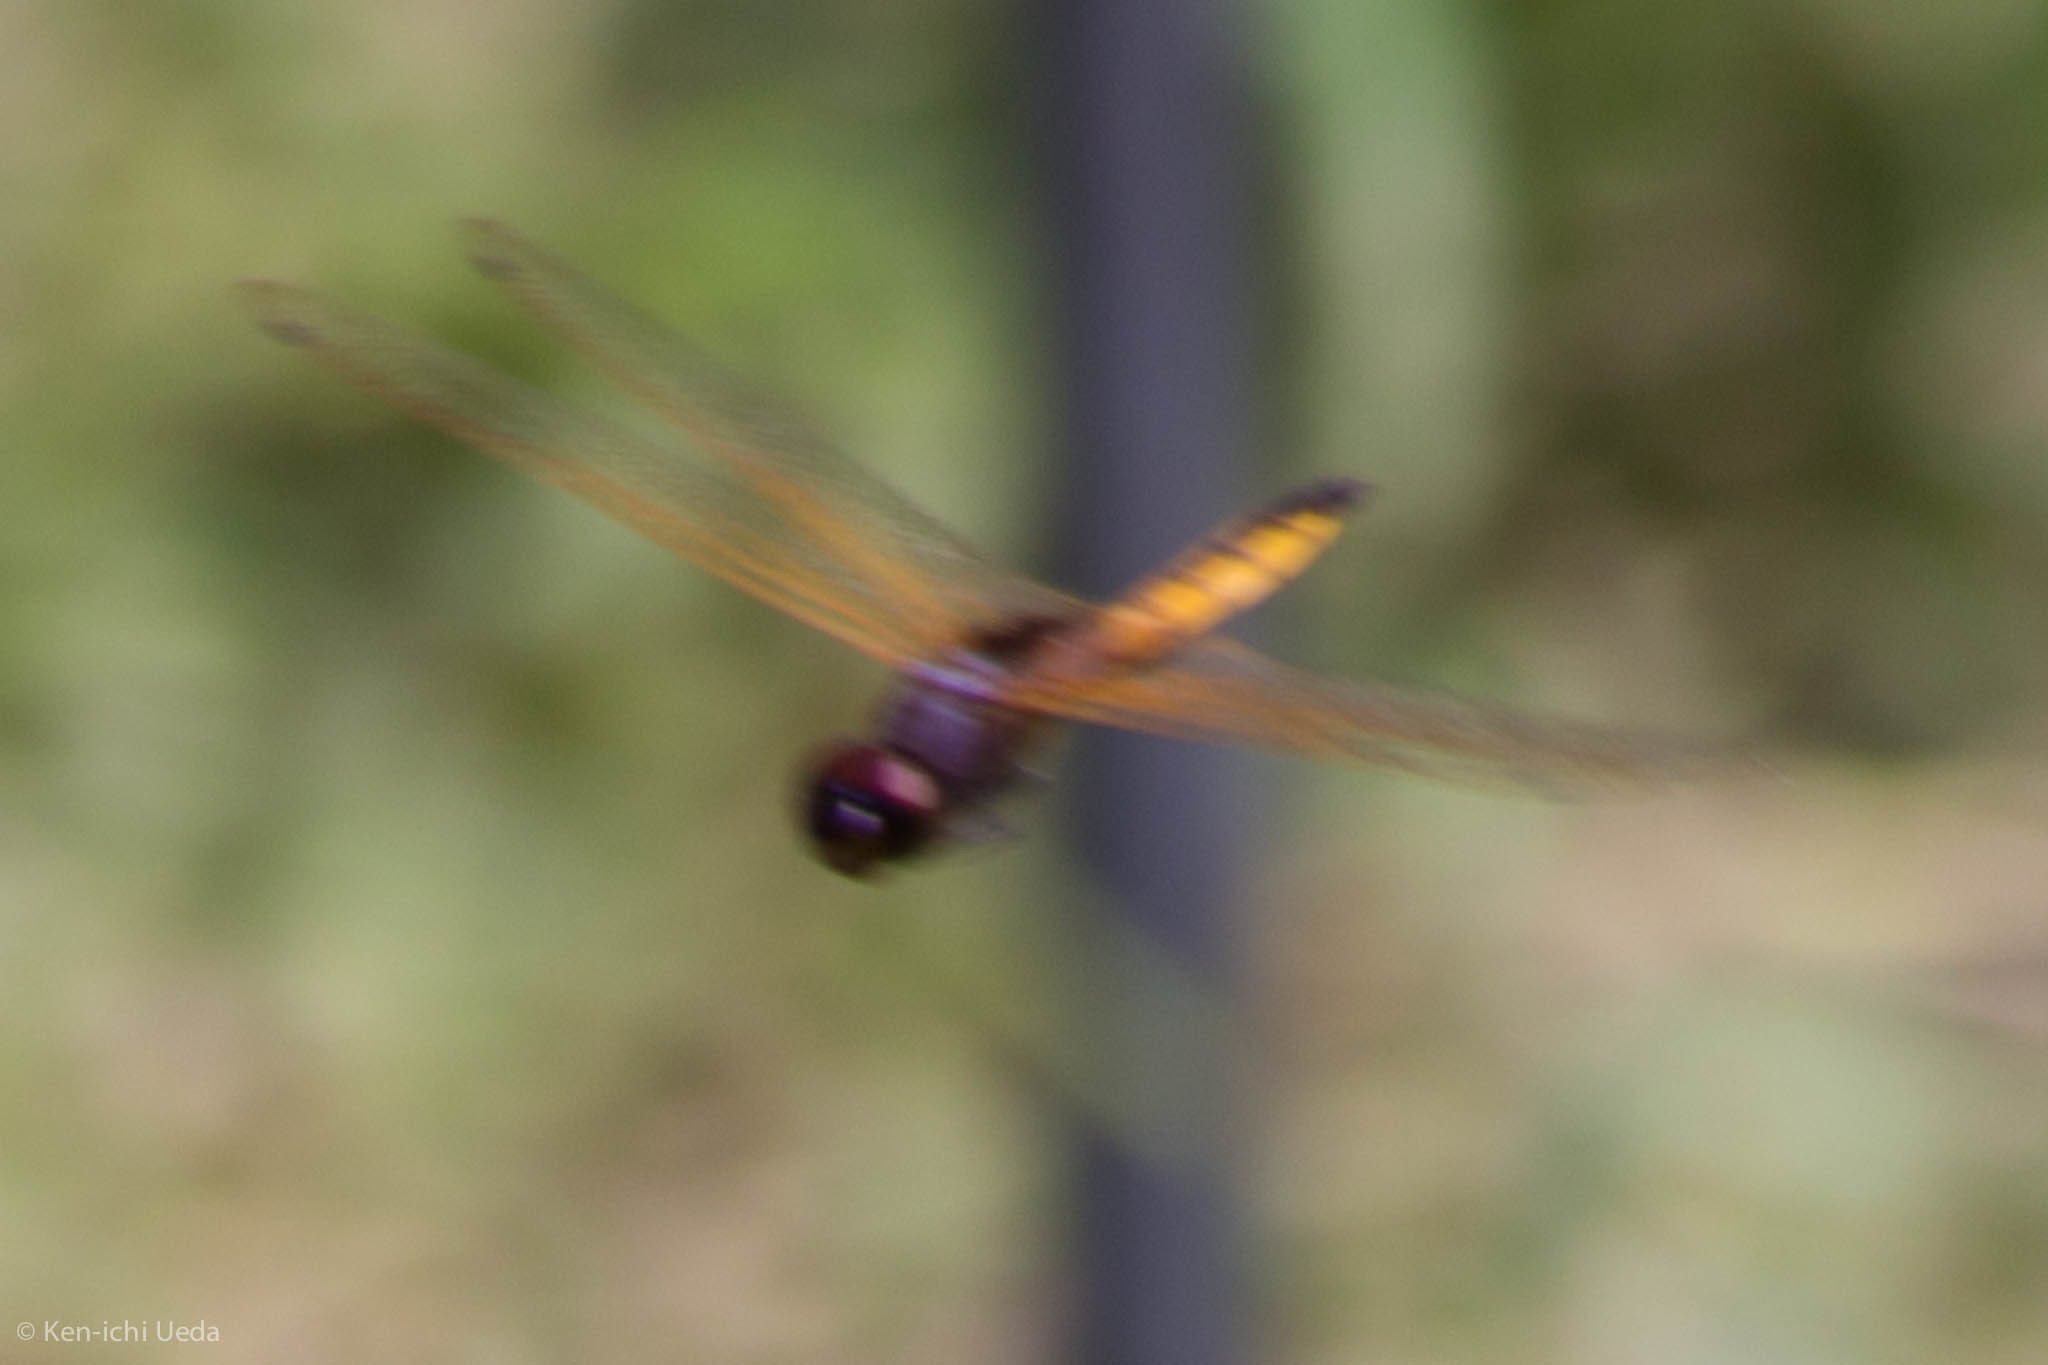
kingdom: Animalia
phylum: Arthropoda
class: Insecta
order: Odonata
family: Libellulidae
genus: Miathyria
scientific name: Miathyria marcella
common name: Hyacinth glider
